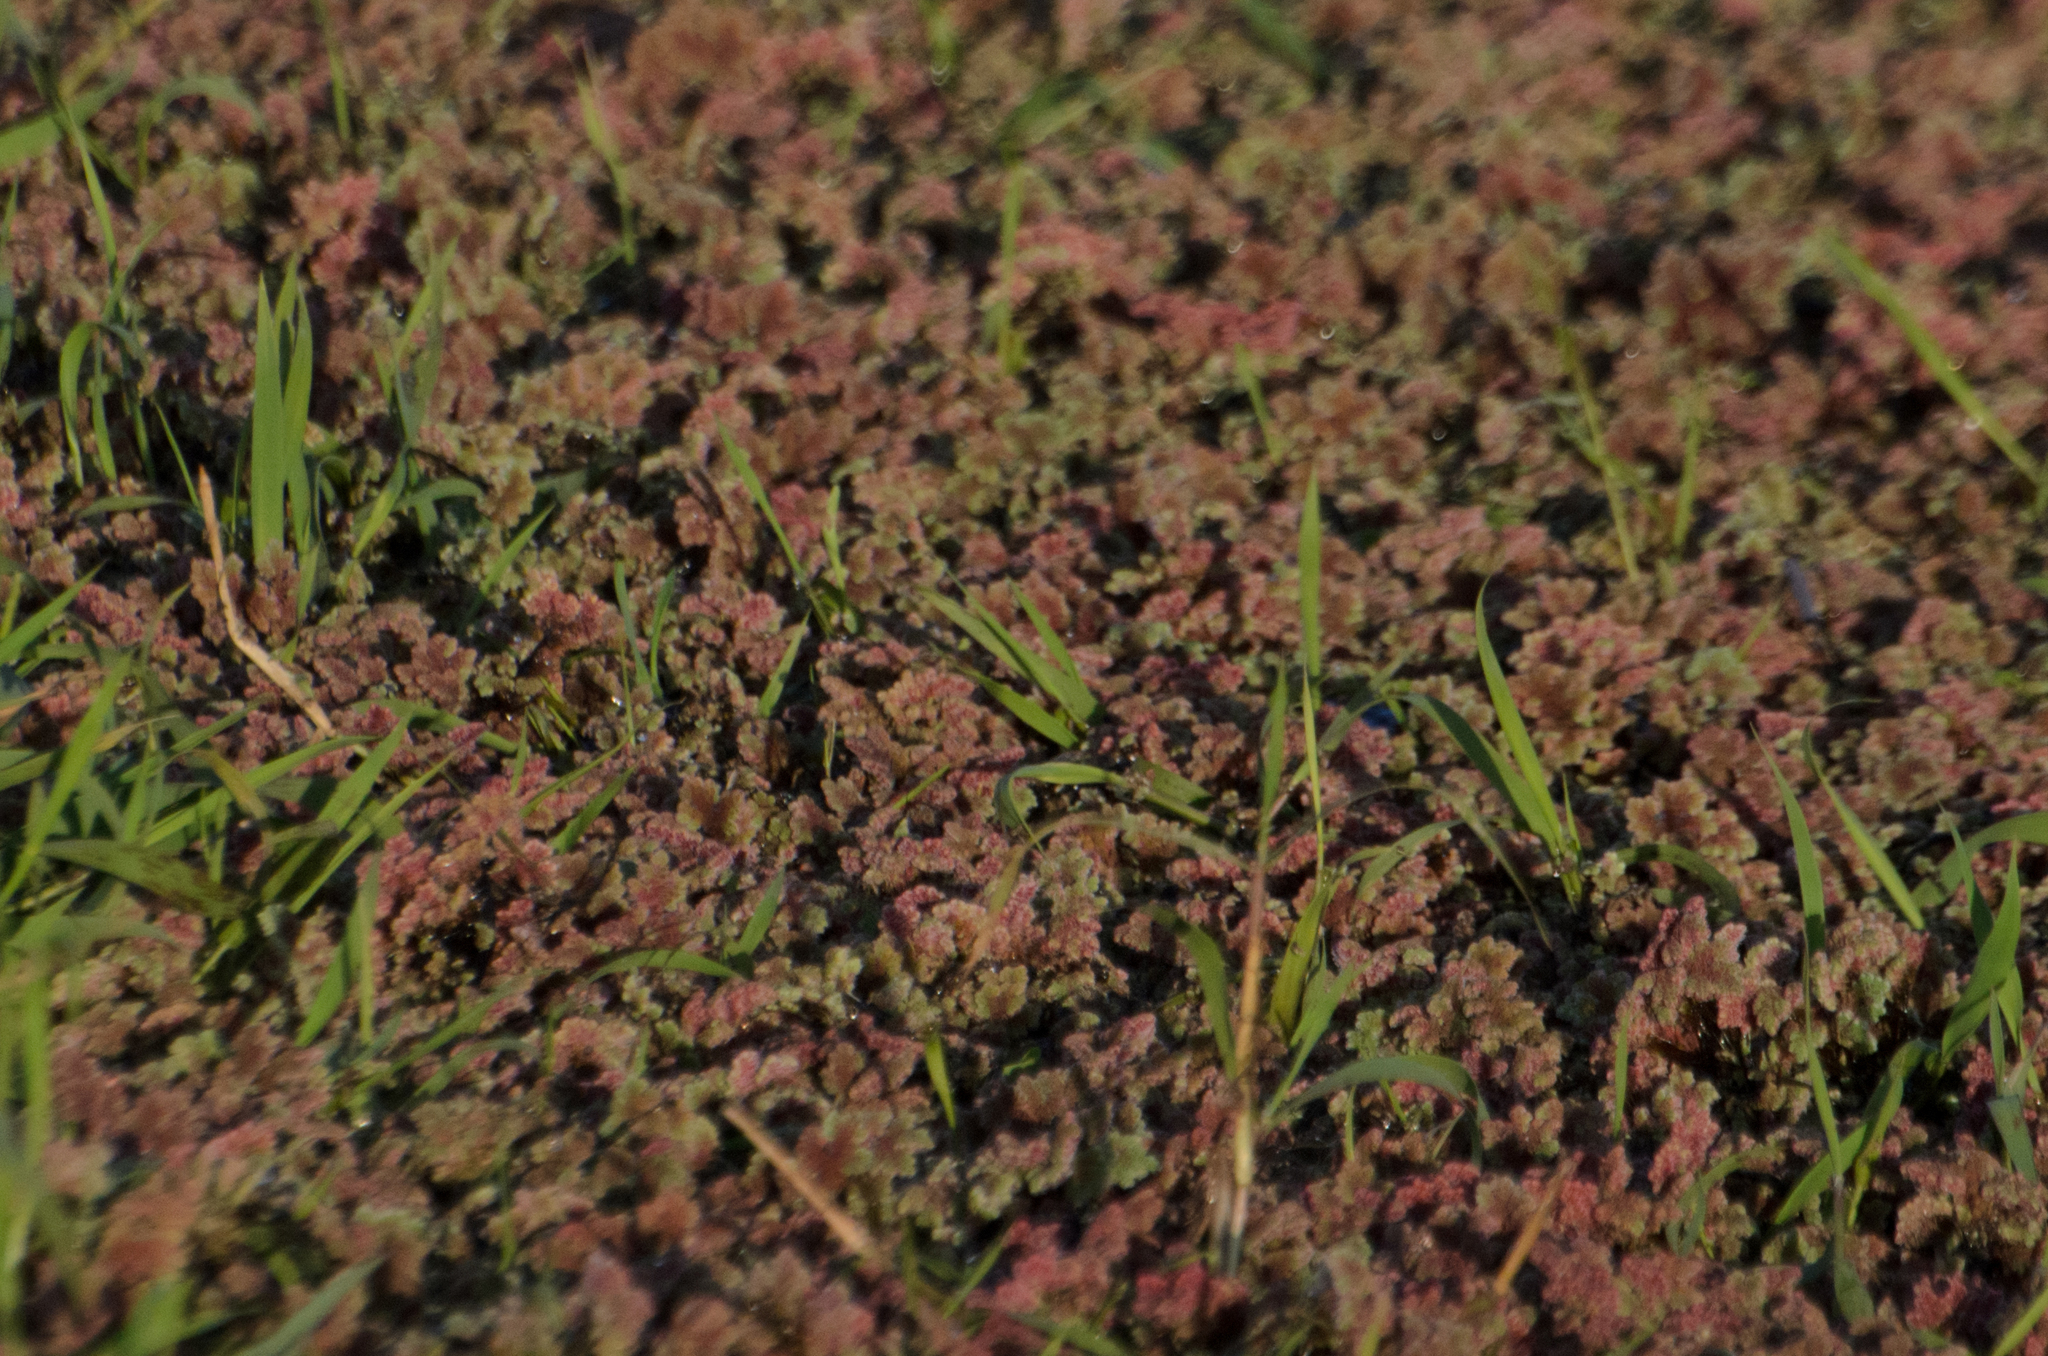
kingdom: Plantae
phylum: Tracheophyta
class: Polypodiopsida
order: Salviniales
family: Salviniaceae
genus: Azolla
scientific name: Azolla filiculoides
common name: Water fern
